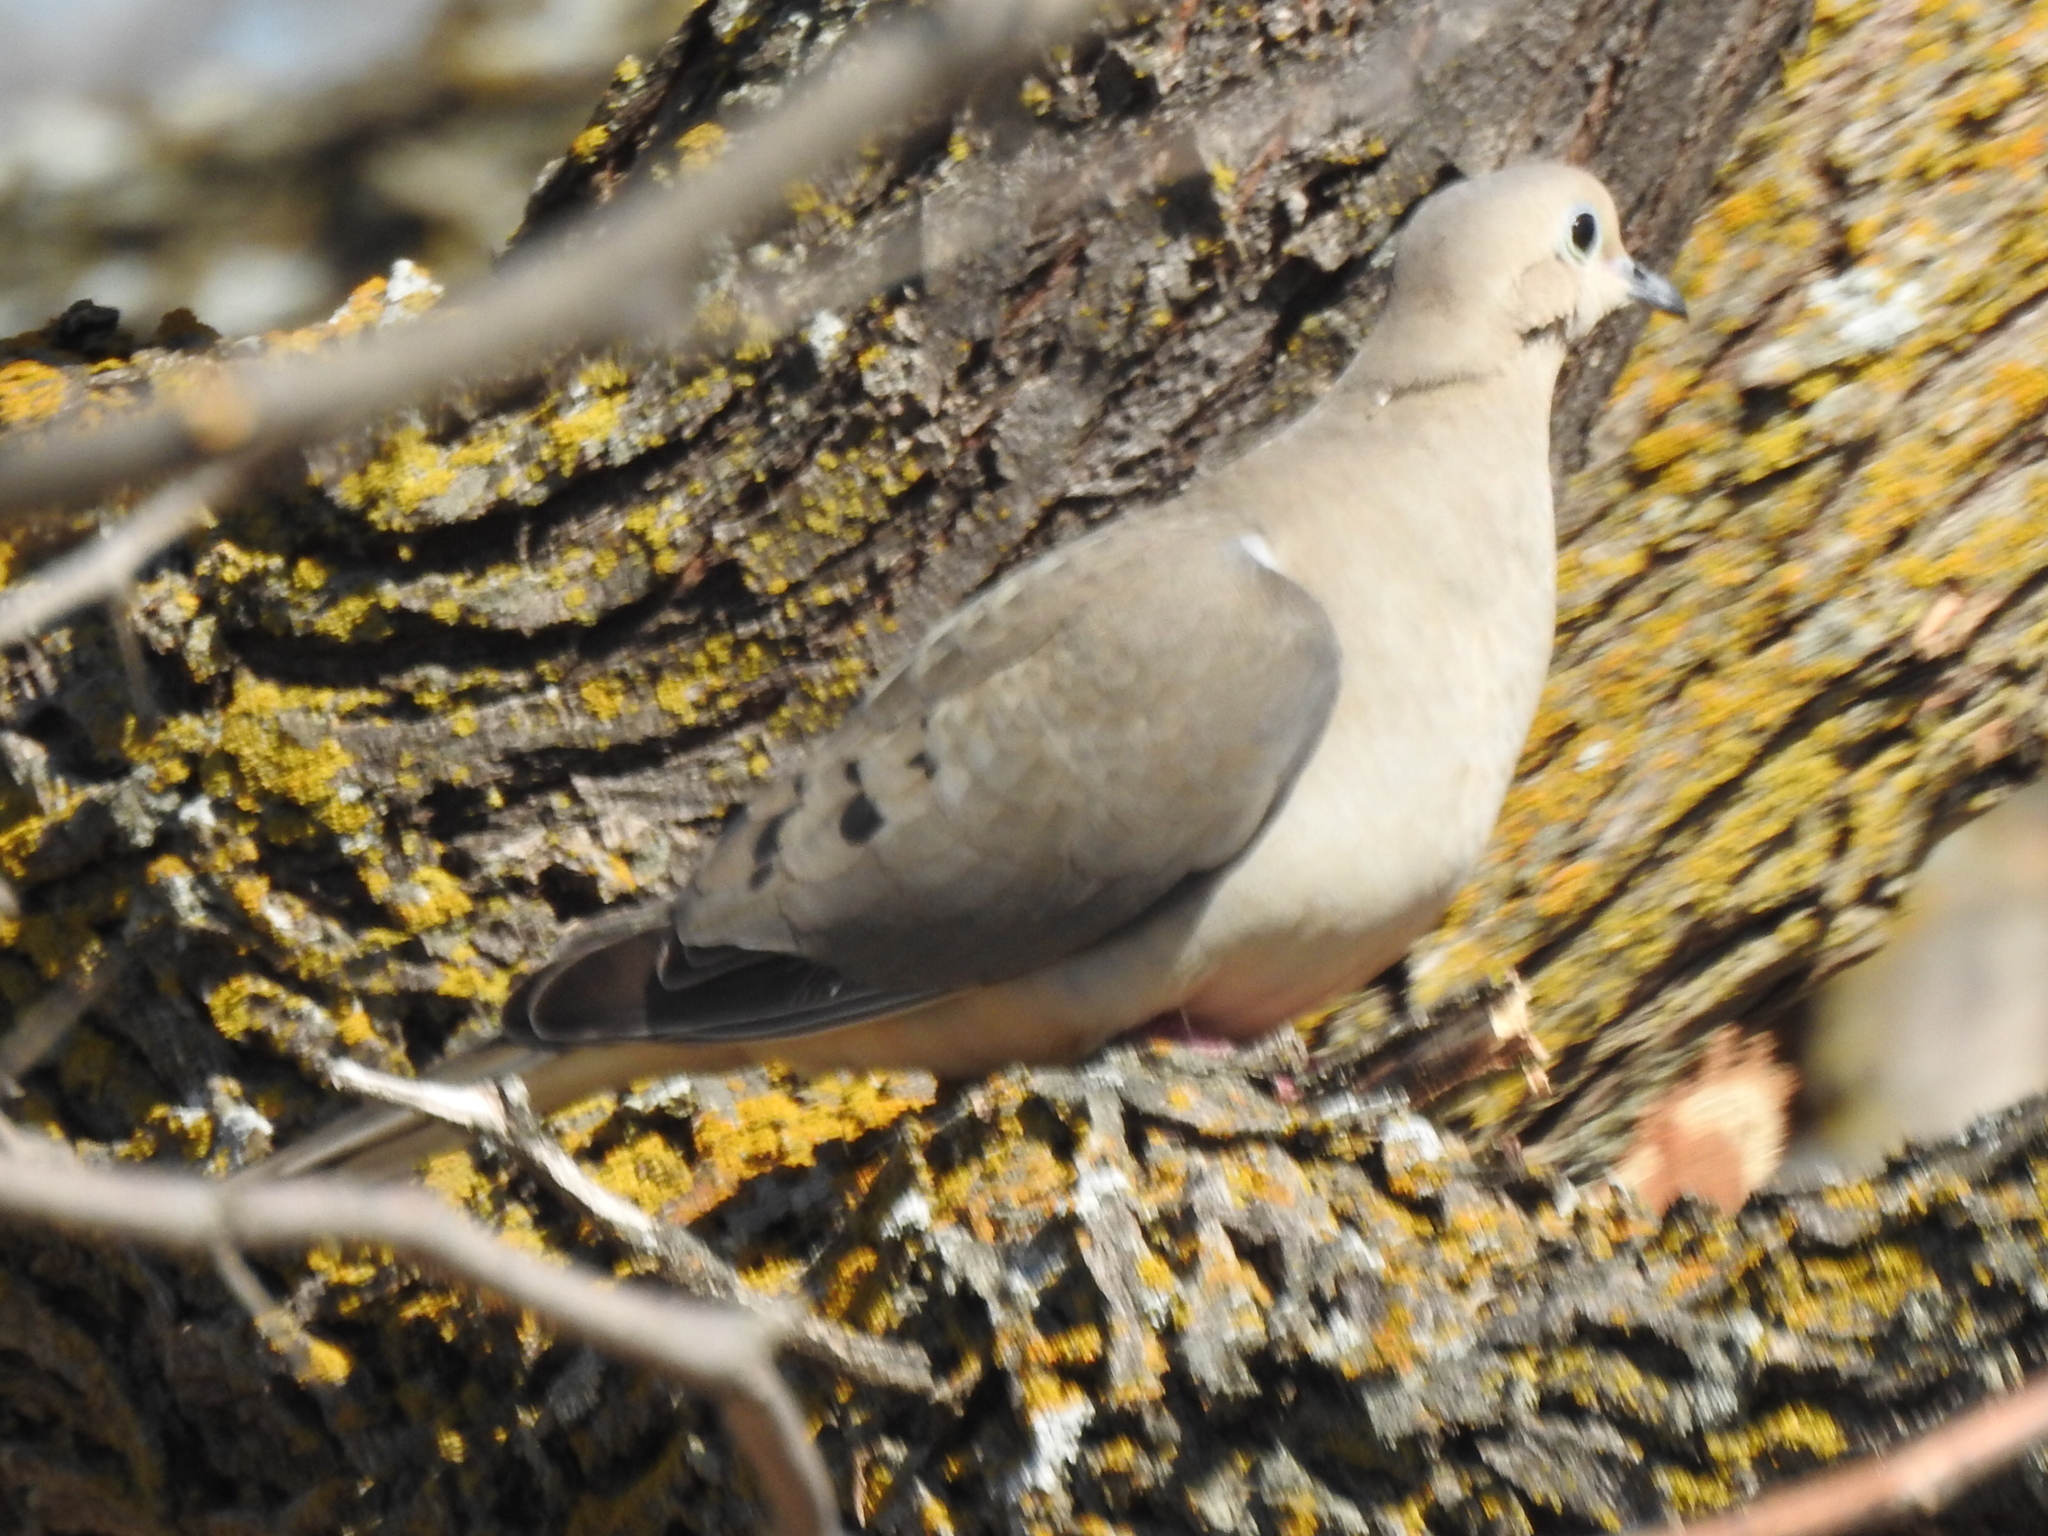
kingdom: Animalia
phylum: Chordata
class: Aves
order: Columbiformes
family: Columbidae
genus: Zenaida
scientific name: Zenaida macroura
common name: Mourning dove
